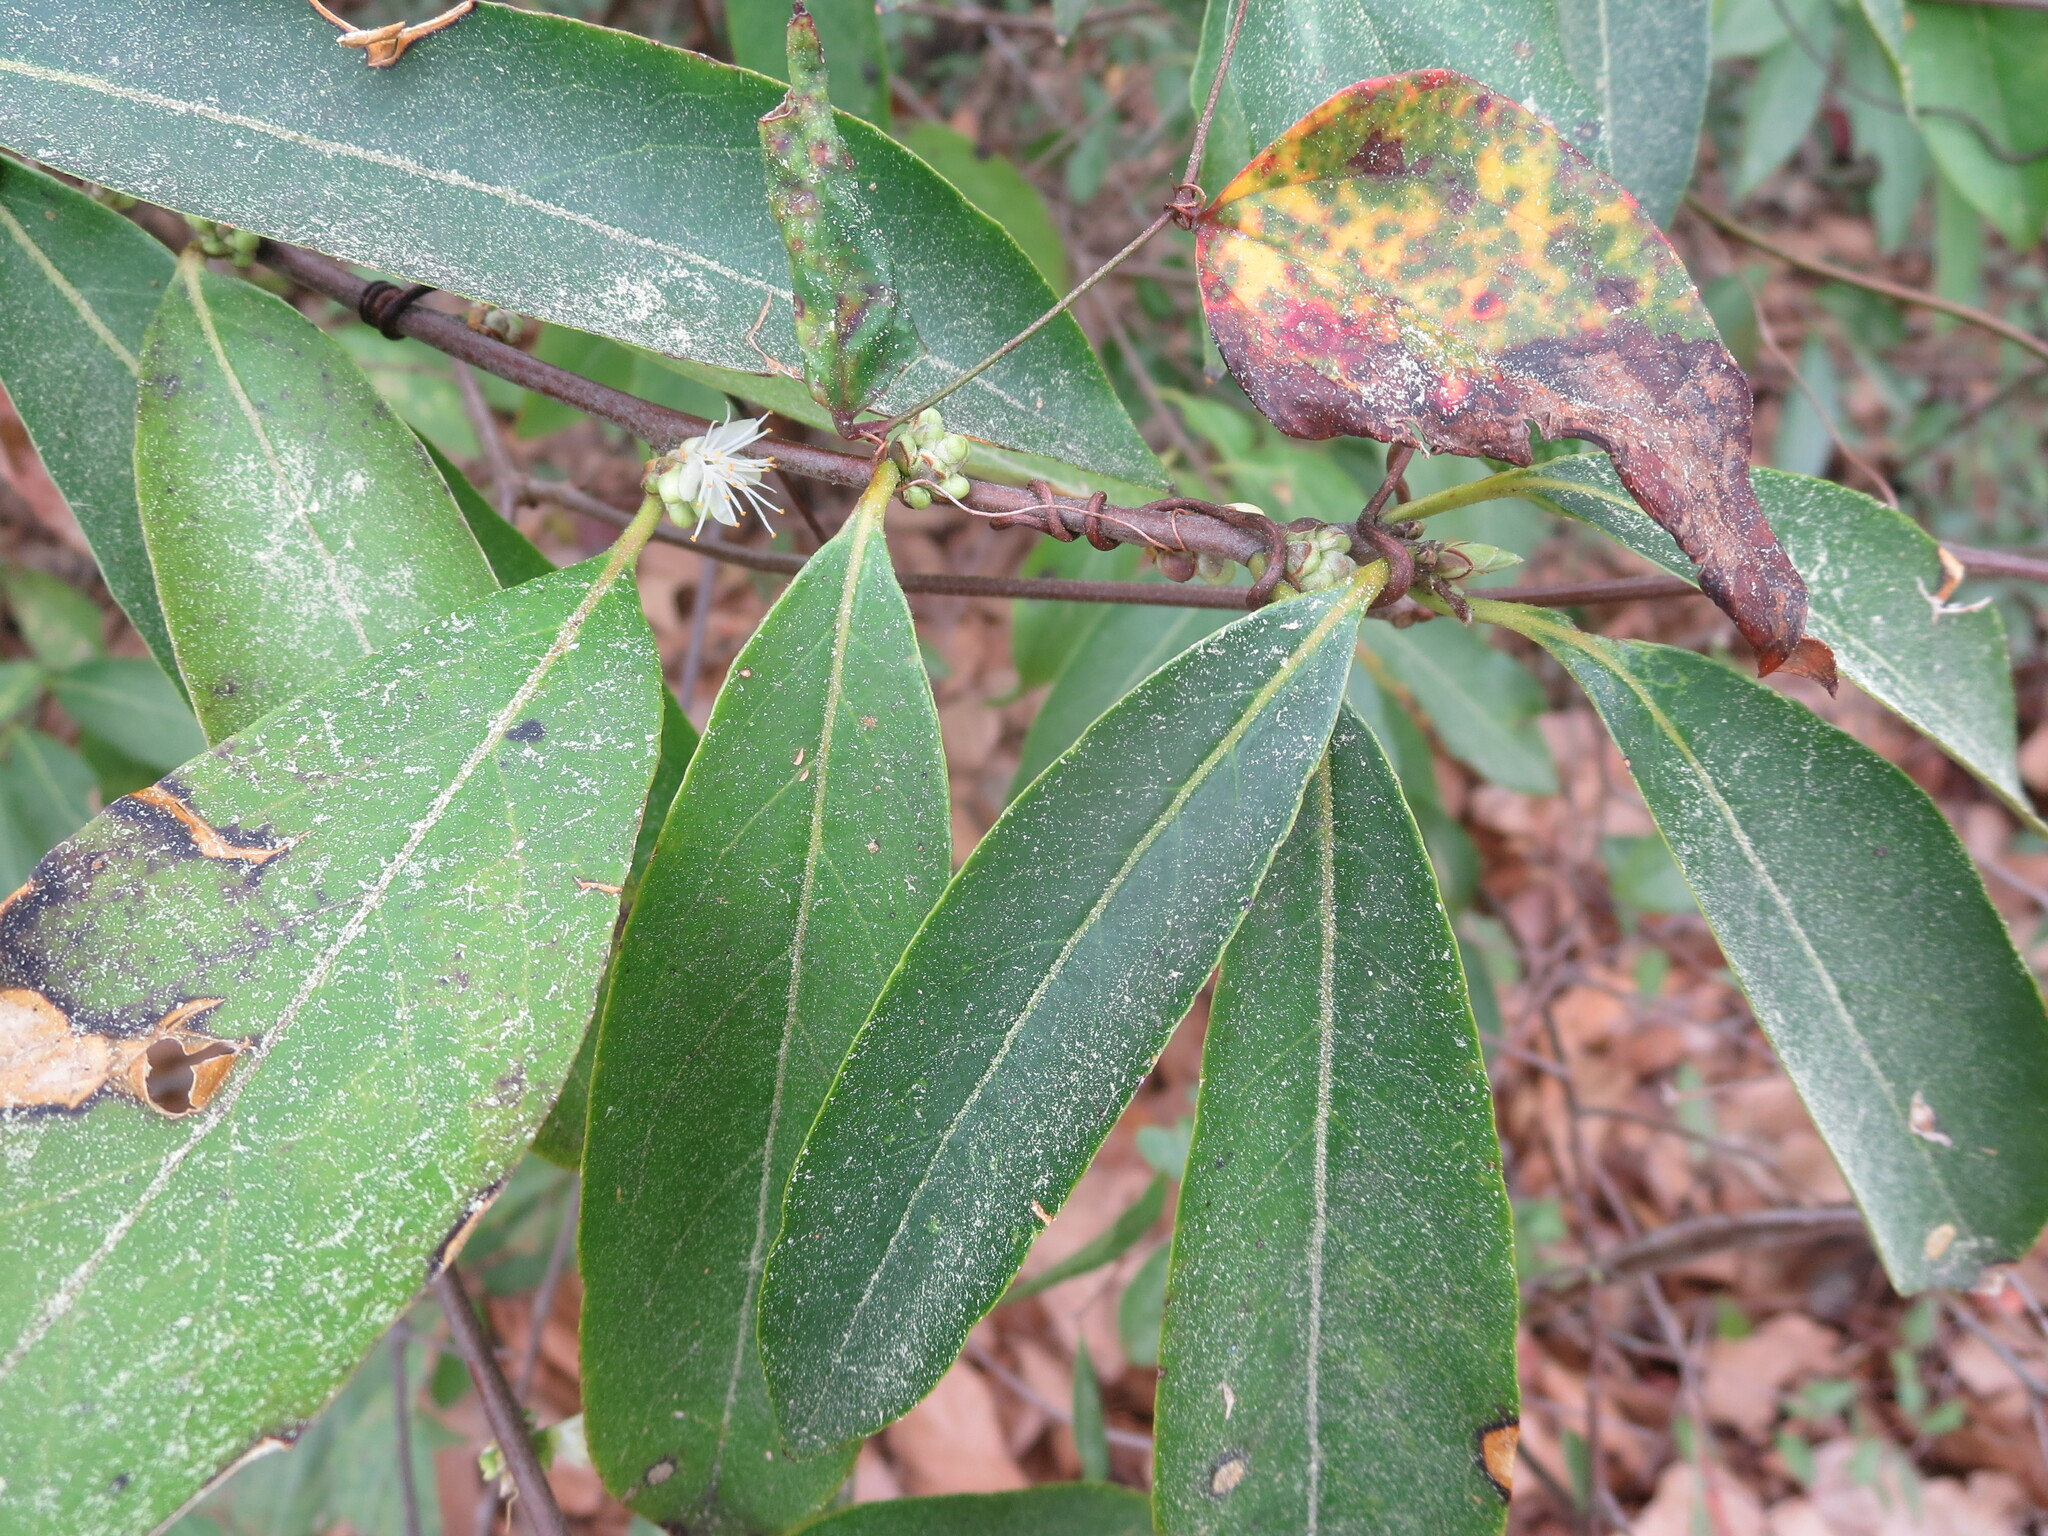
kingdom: Plantae
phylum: Tracheophyta
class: Magnoliopsida
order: Ericales
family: Symplocaceae
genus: Symplocos
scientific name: Symplocos tinctoria
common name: Horse-sugar
